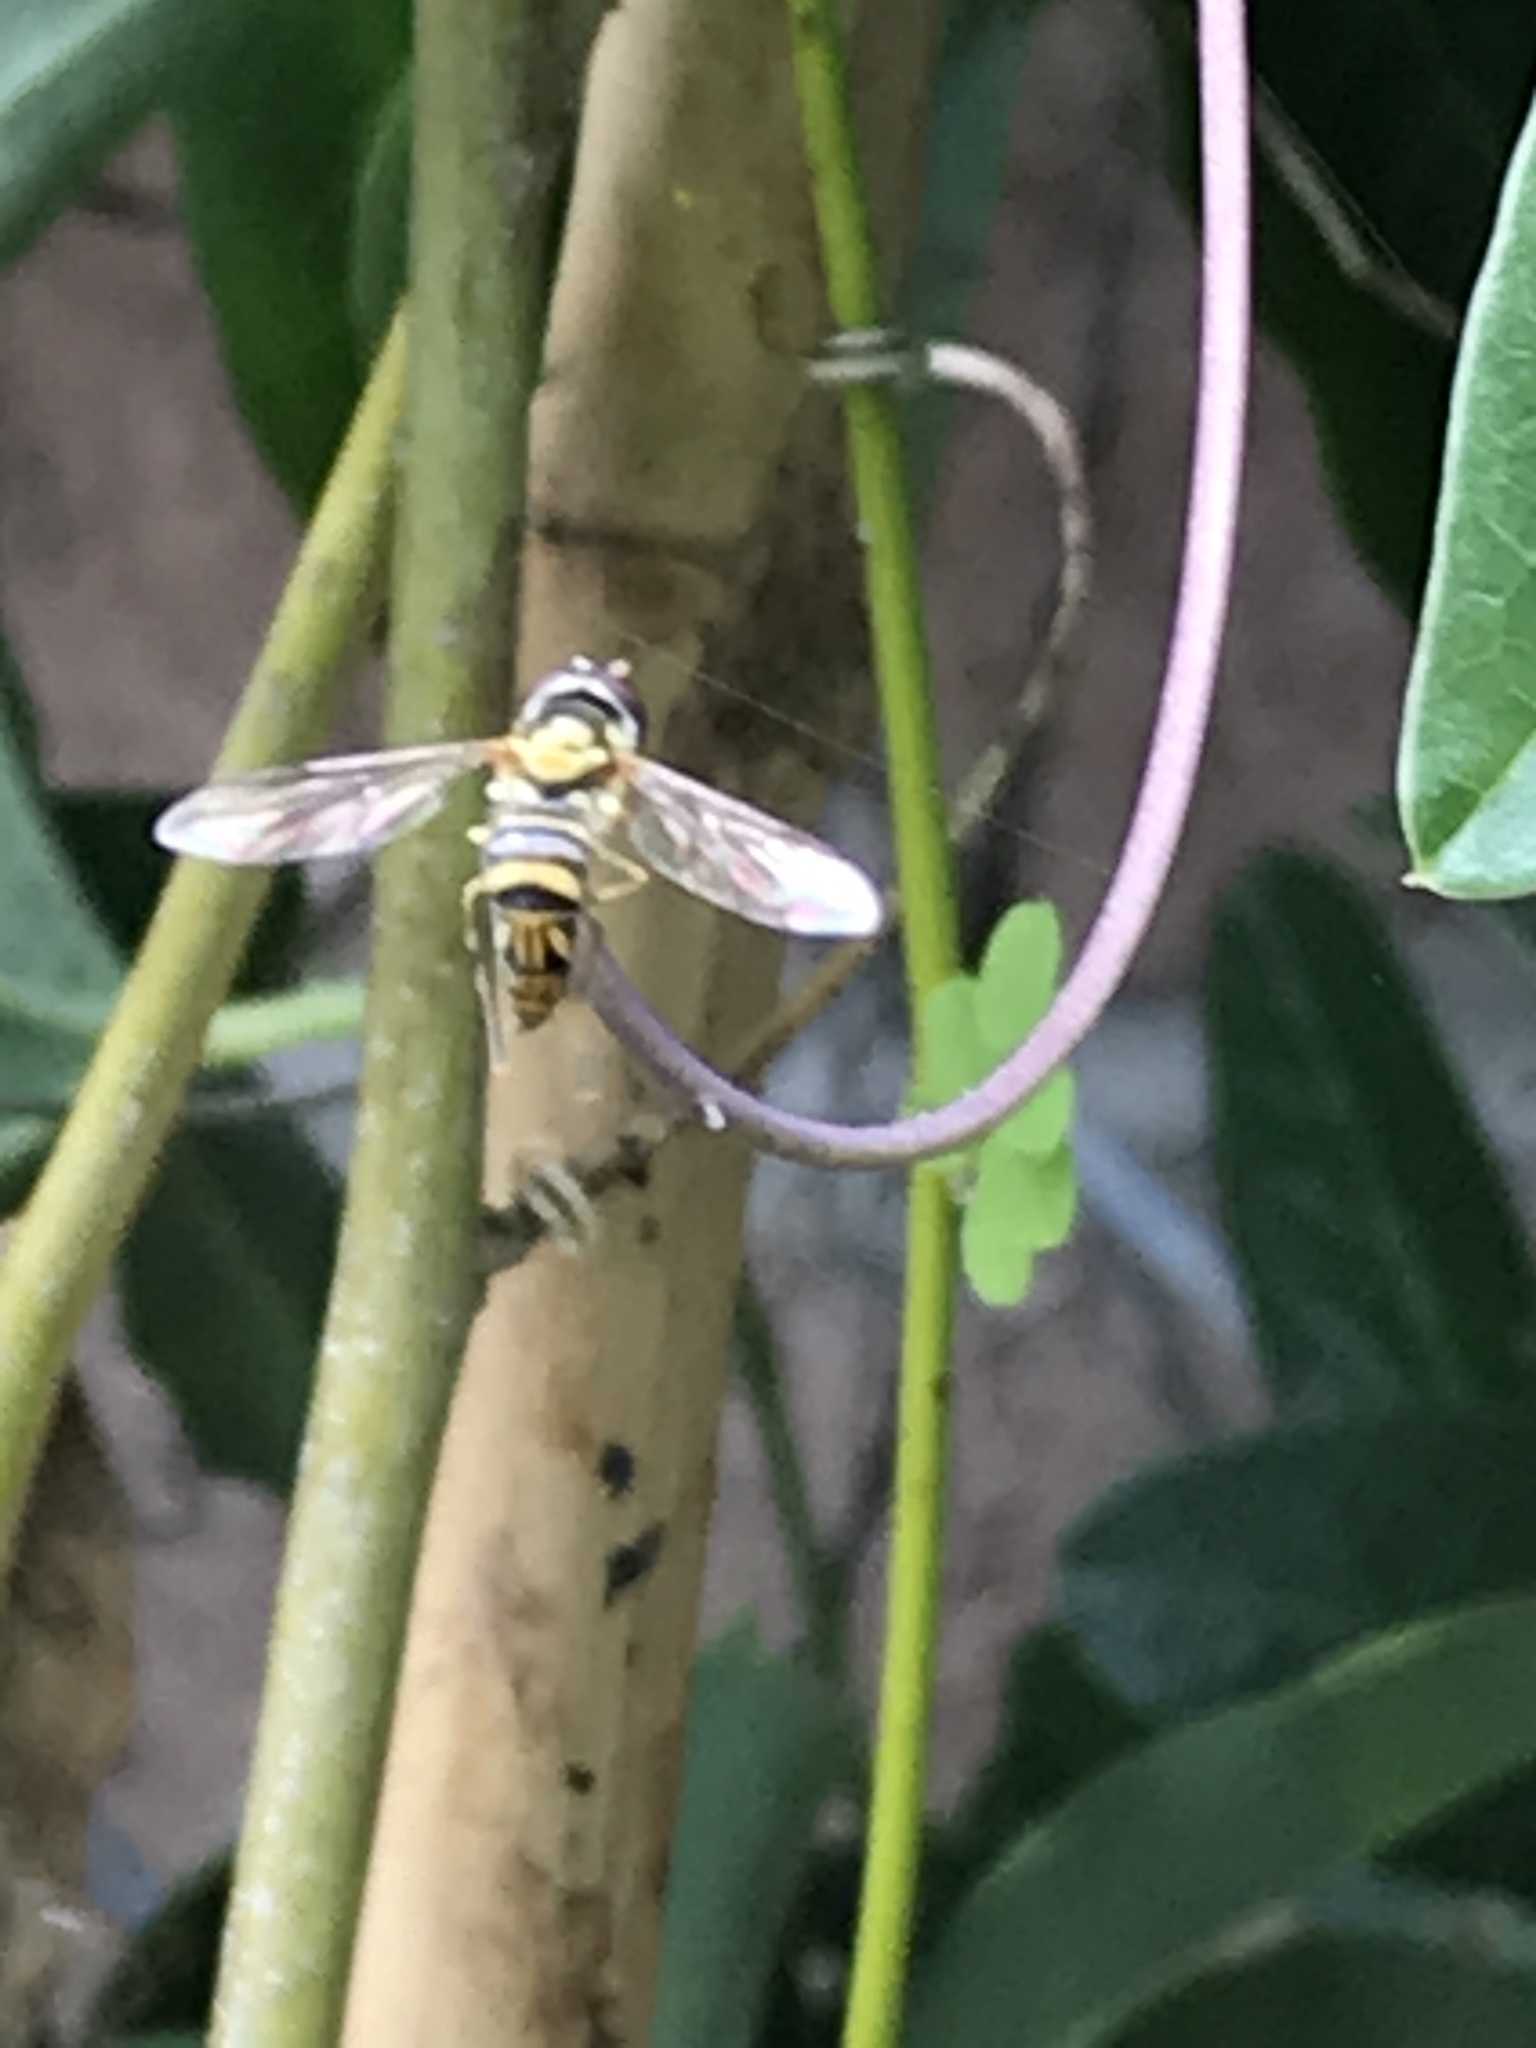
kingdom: Animalia
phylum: Arthropoda
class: Insecta
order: Diptera
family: Syrphidae
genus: Allograpta
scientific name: Allograpta obliqua
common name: Common oblique syrphid
